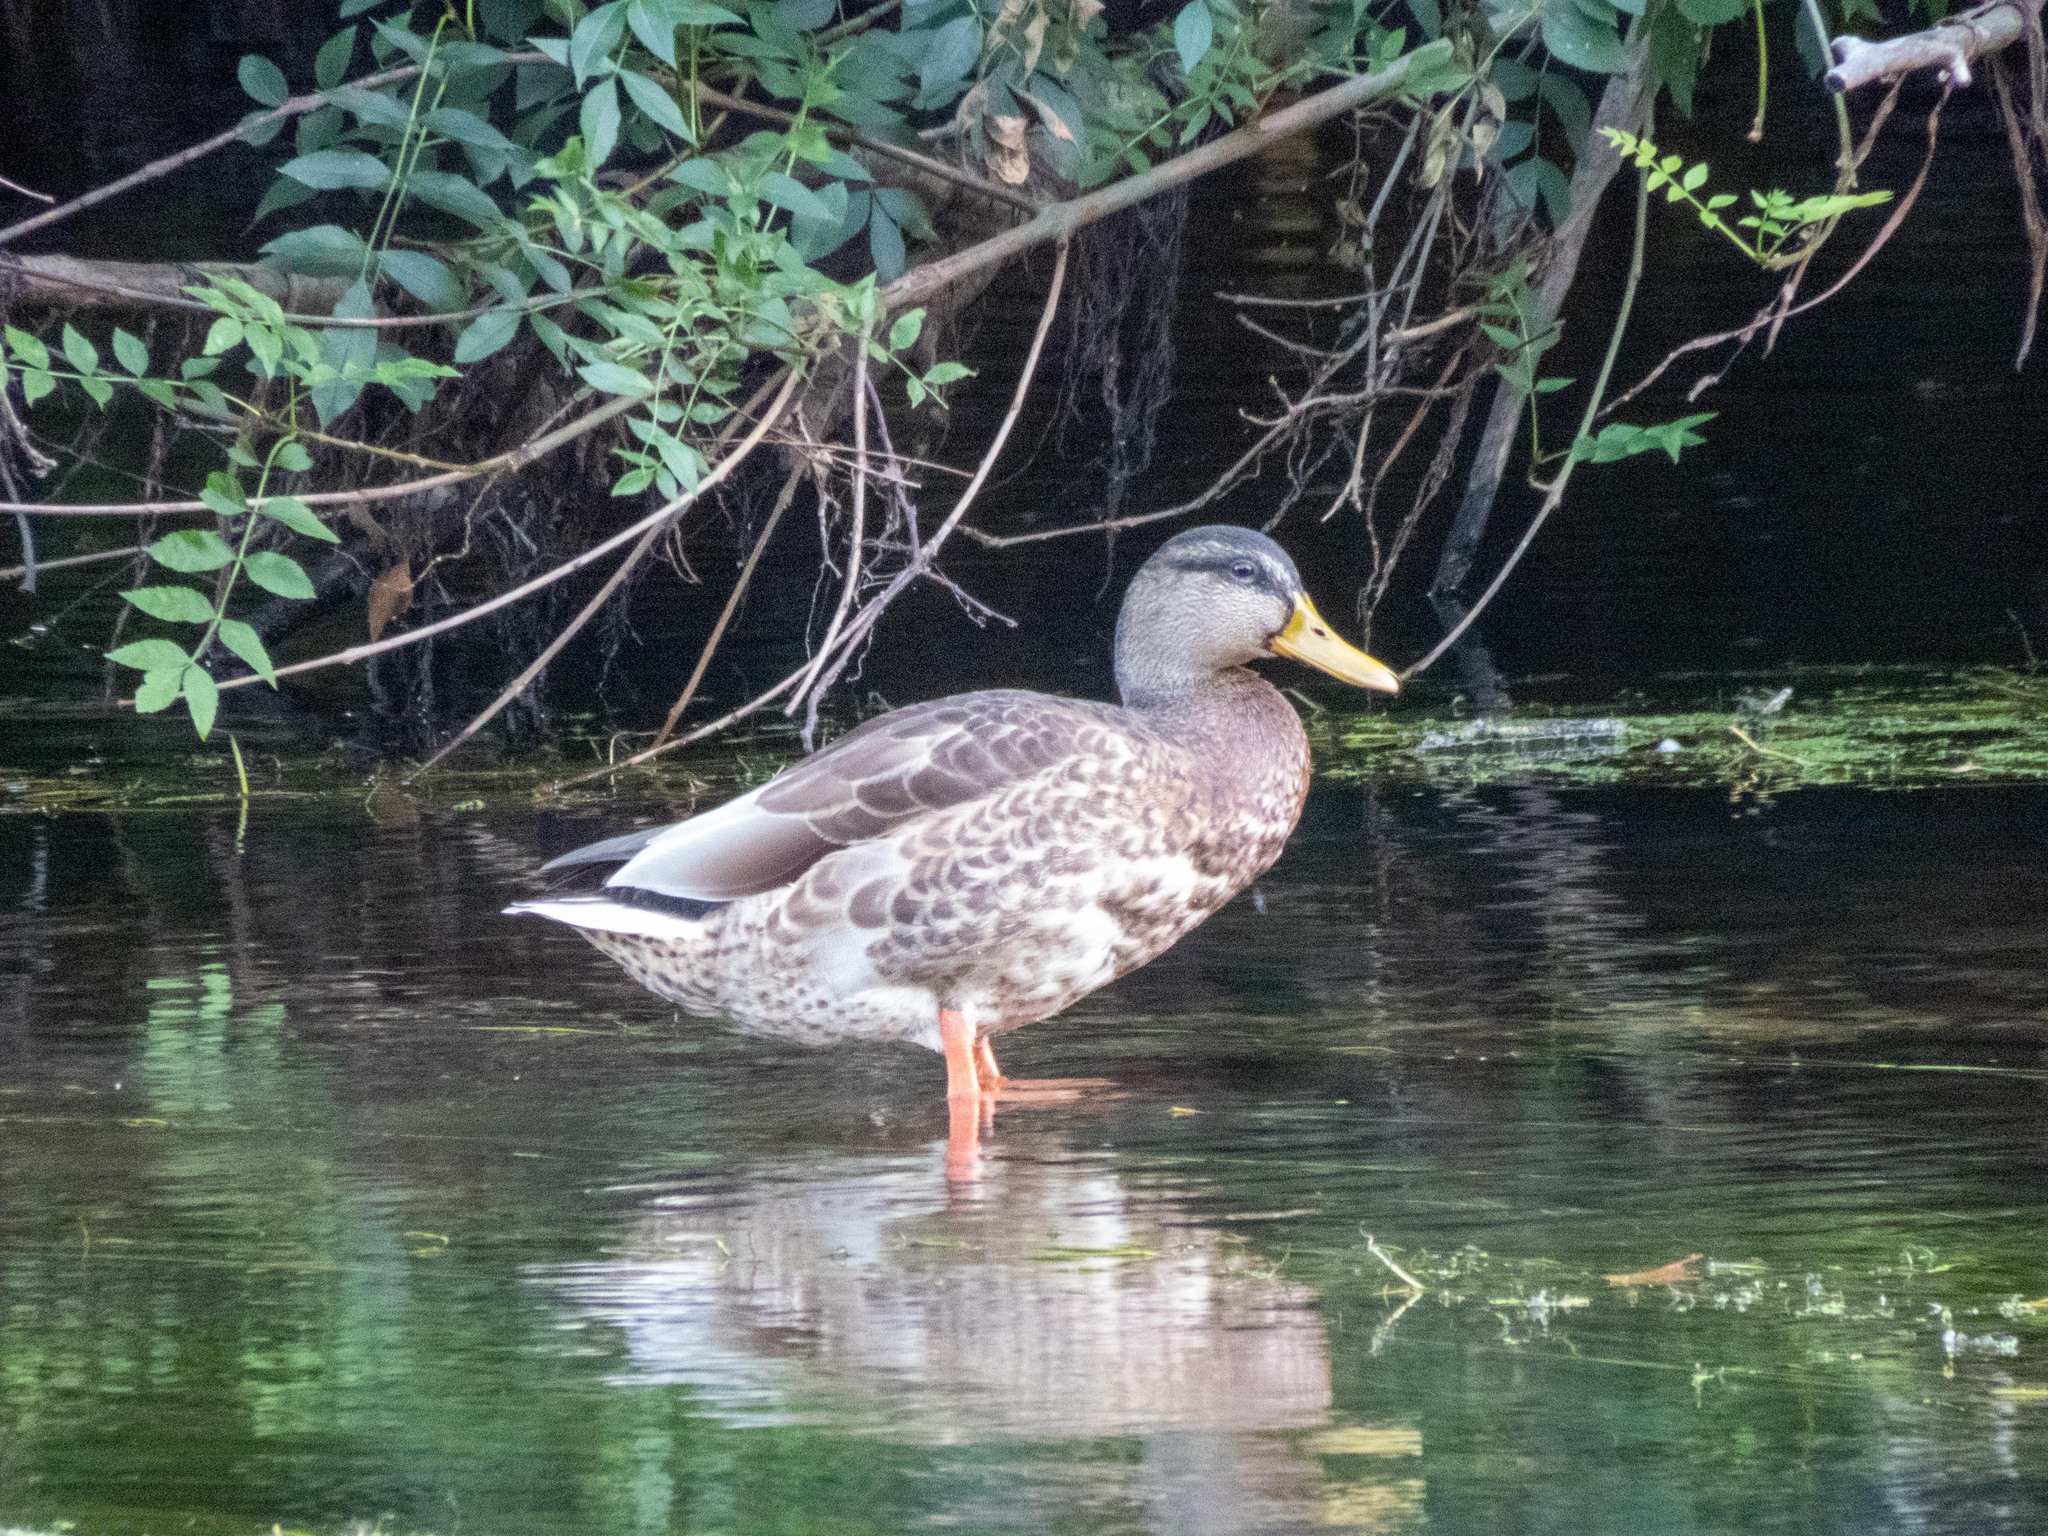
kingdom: Animalia
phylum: Chordata
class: Aves
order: Anseriformes
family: Anatidae
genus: Anas
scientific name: Anas platyrhynchos
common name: Mallard
